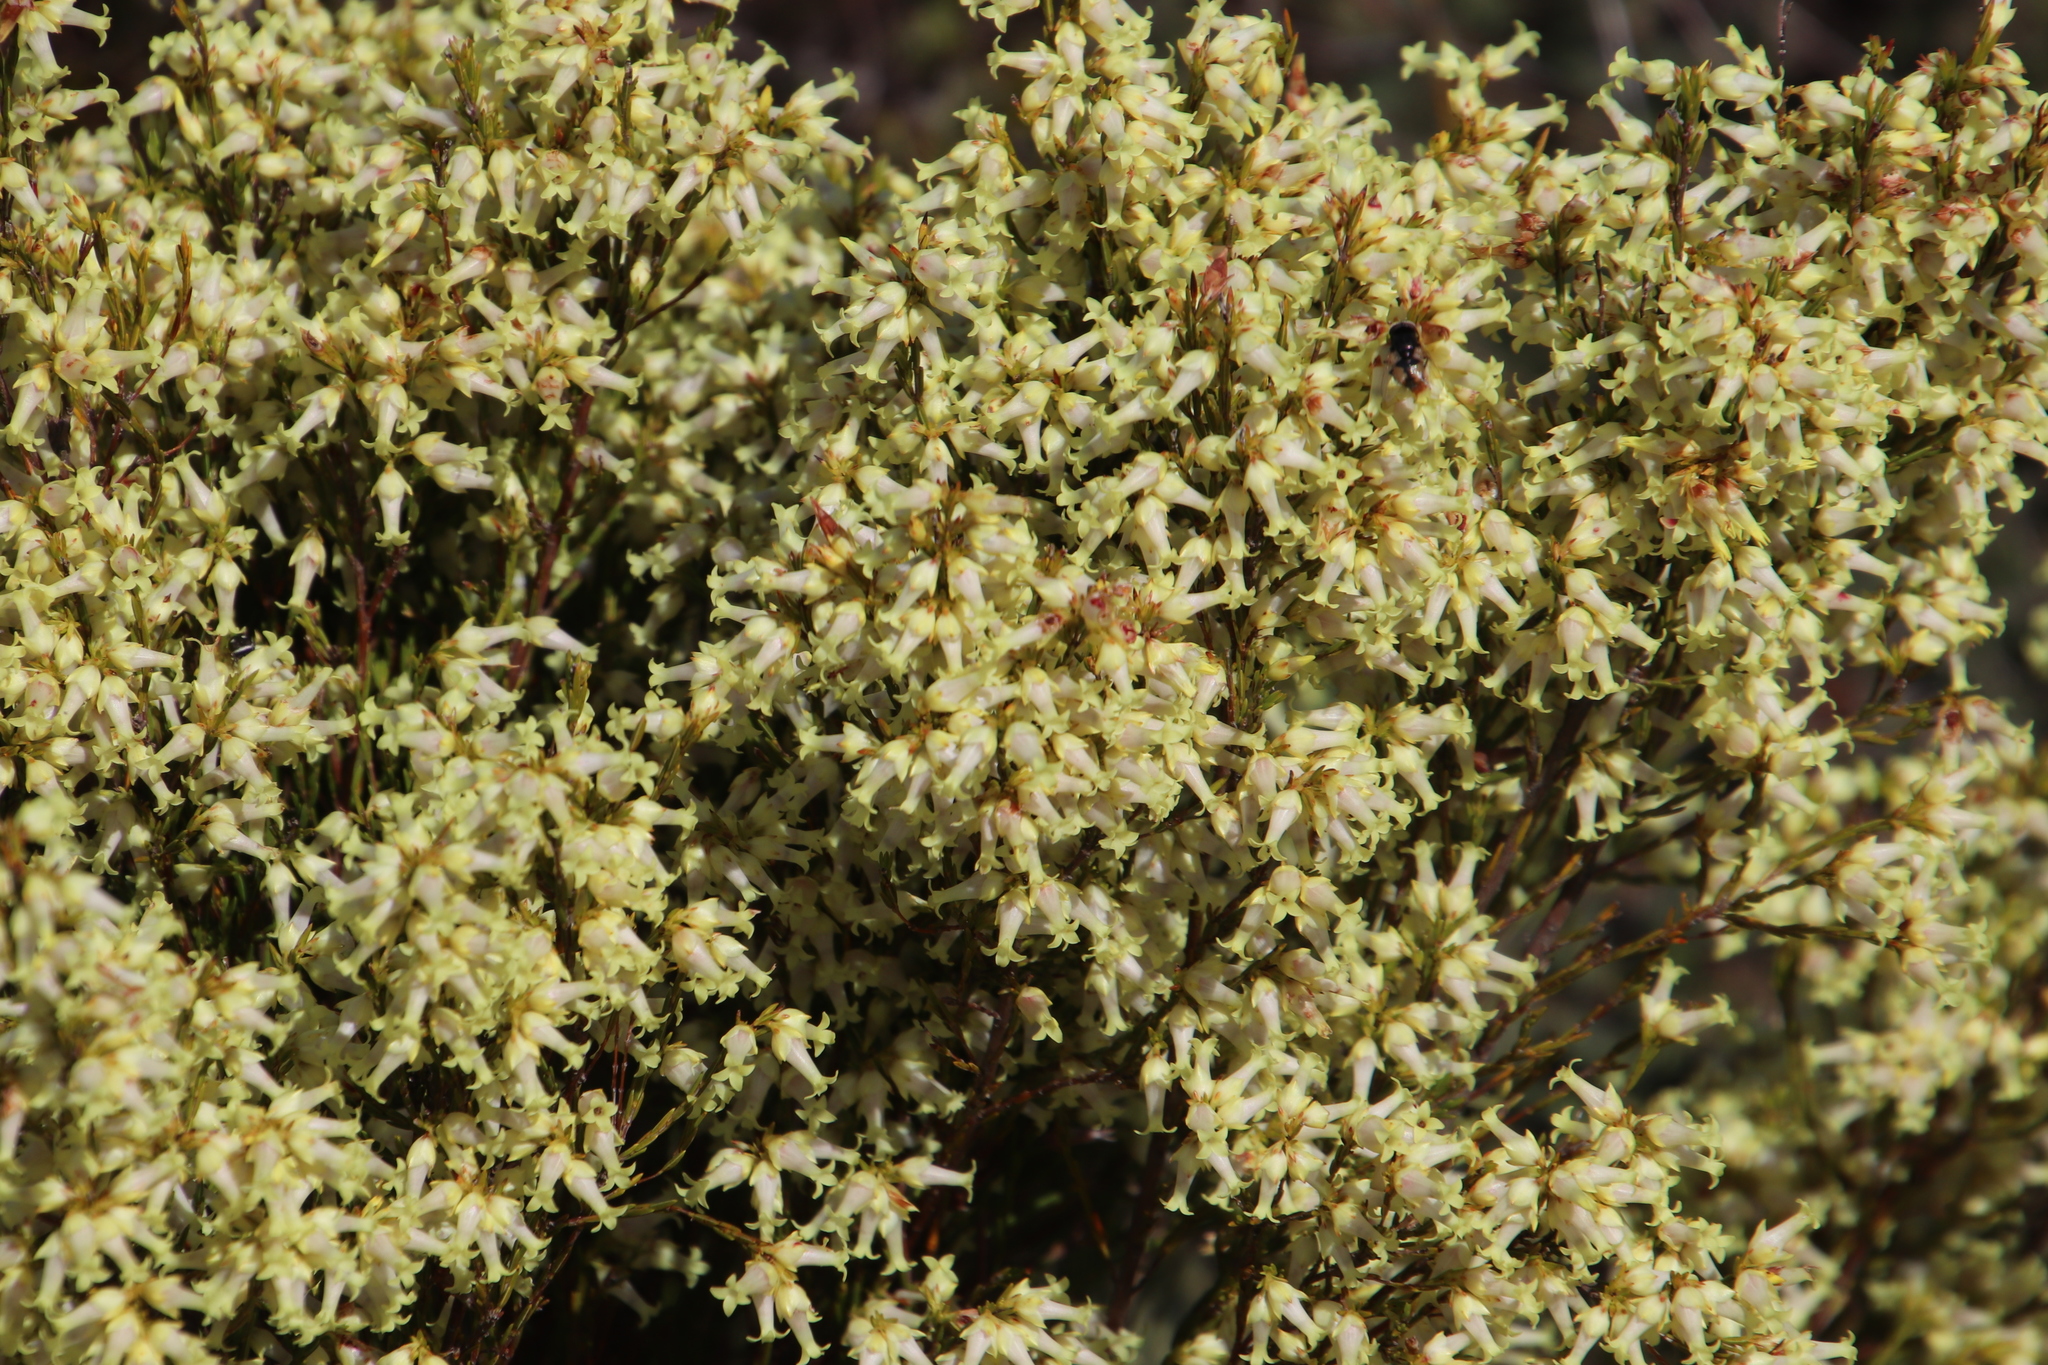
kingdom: Plantae
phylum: Tracheophyta
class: Magnoliopsida
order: Ericales
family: Ericaceae
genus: Erica
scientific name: Erica lutea
